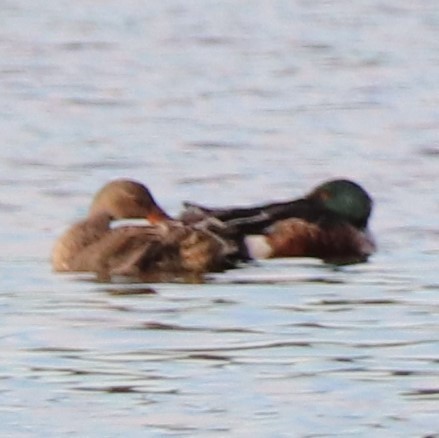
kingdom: Animalia
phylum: Chordata
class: Aves
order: Anseriformes
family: Anatidae
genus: Spatula
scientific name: Spatula clypeata
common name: Northern shoveler
